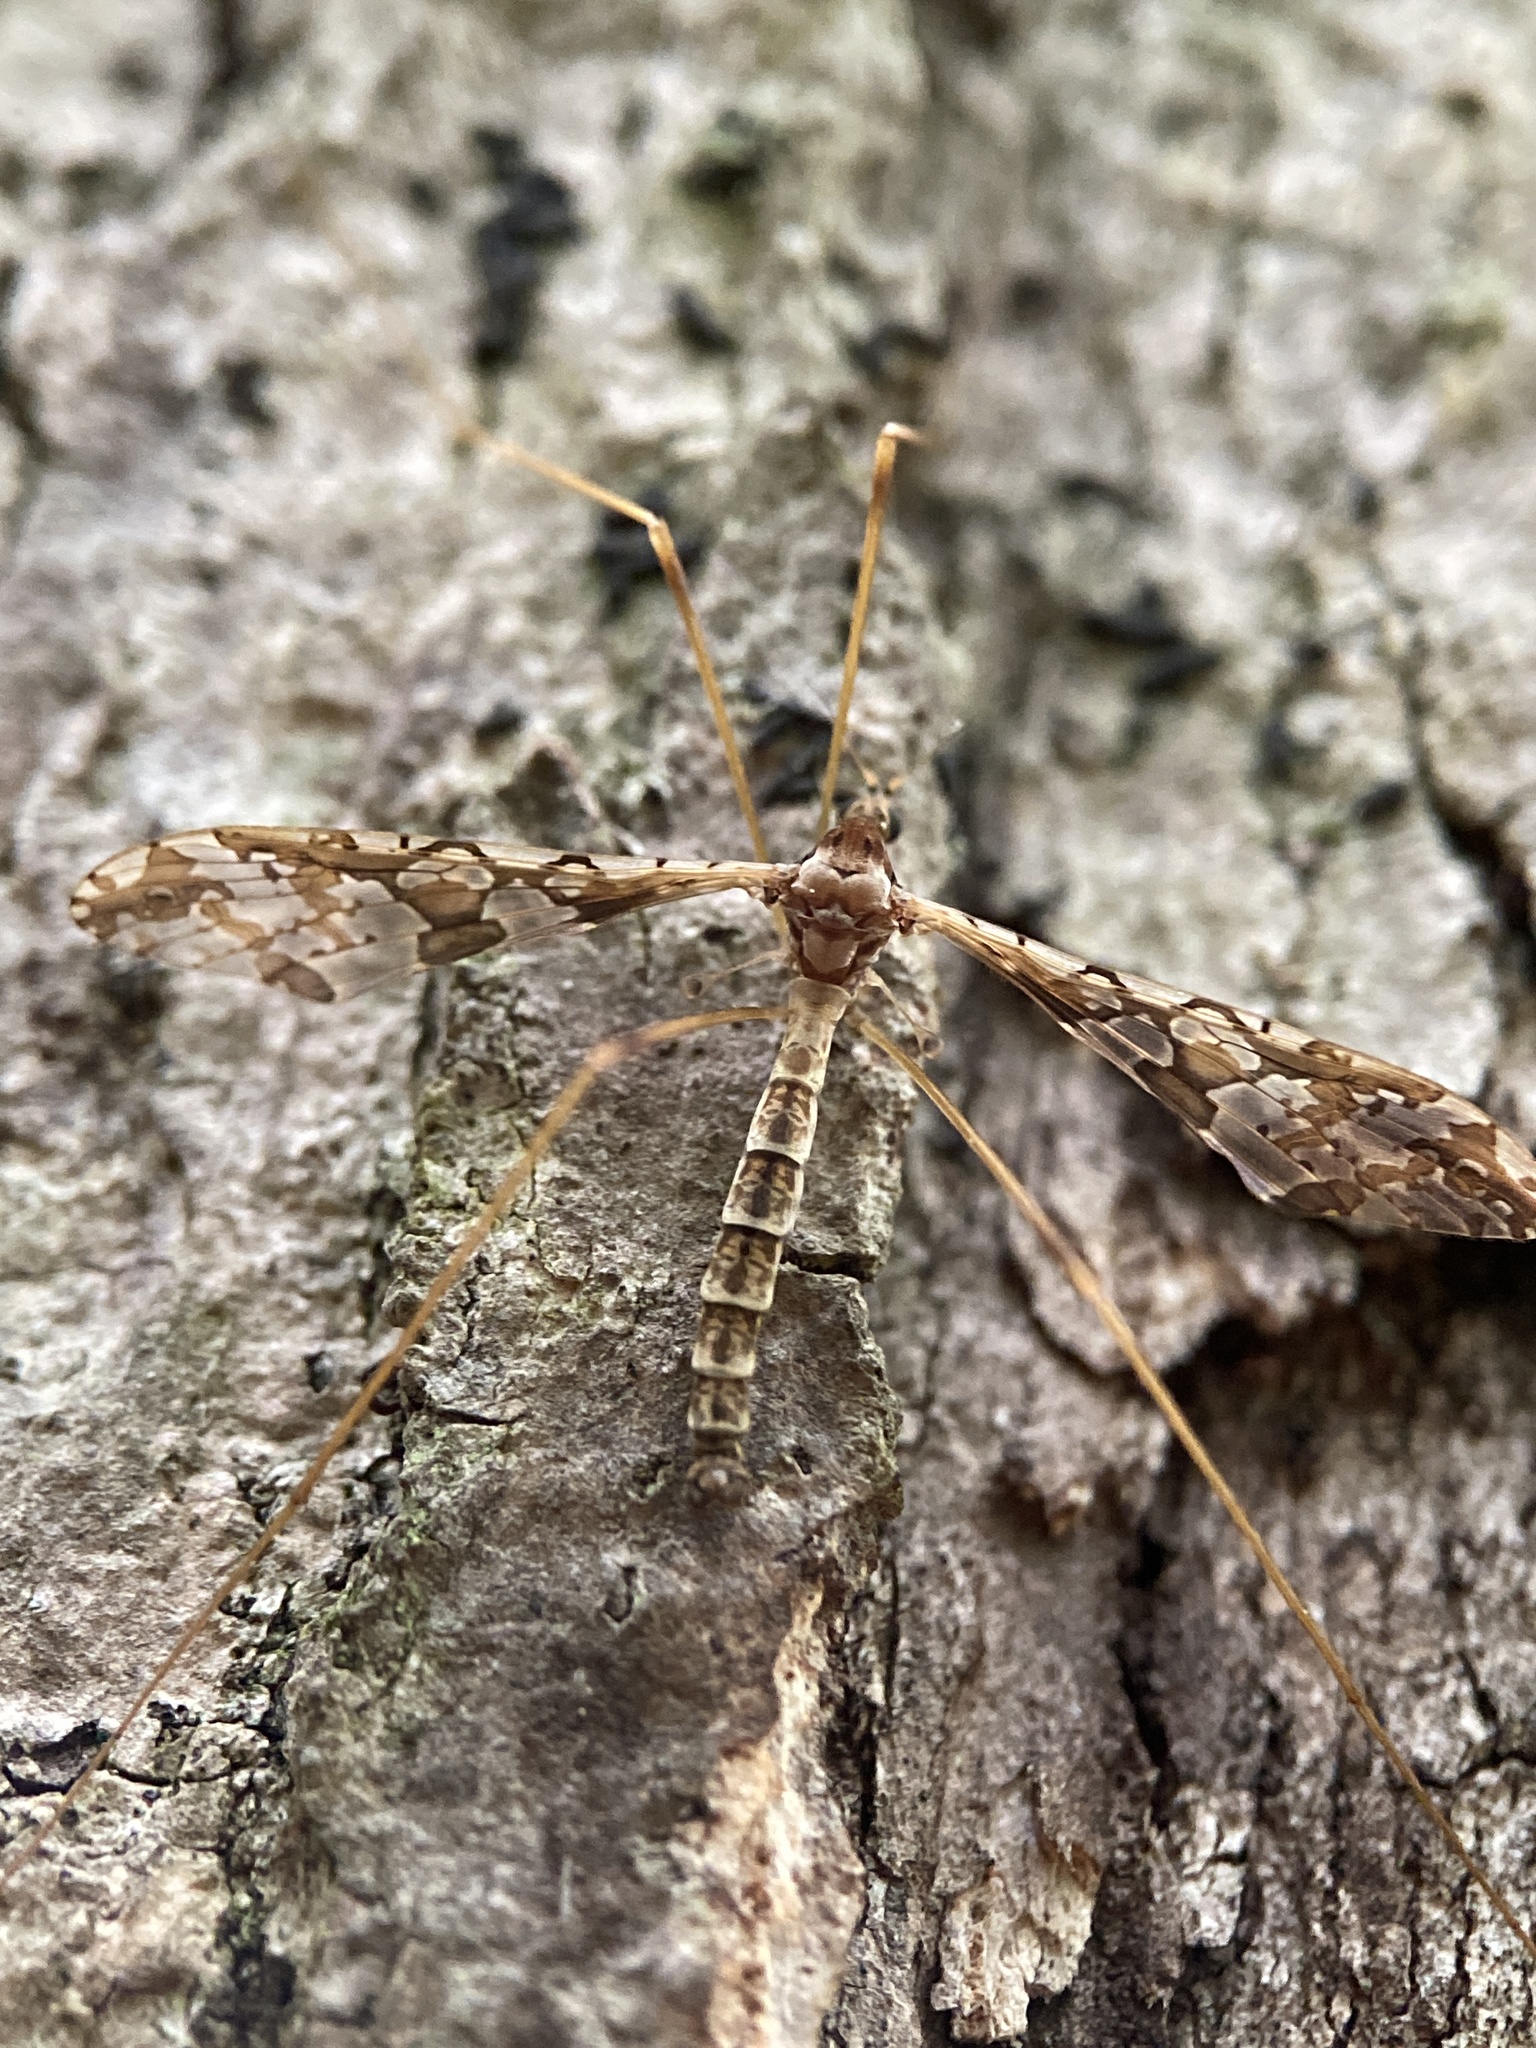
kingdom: Animalia
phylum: Arthropoda
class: Insecta
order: Diptera
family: Limoniidae
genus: Epiphragma
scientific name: Epiphragma solatrix
